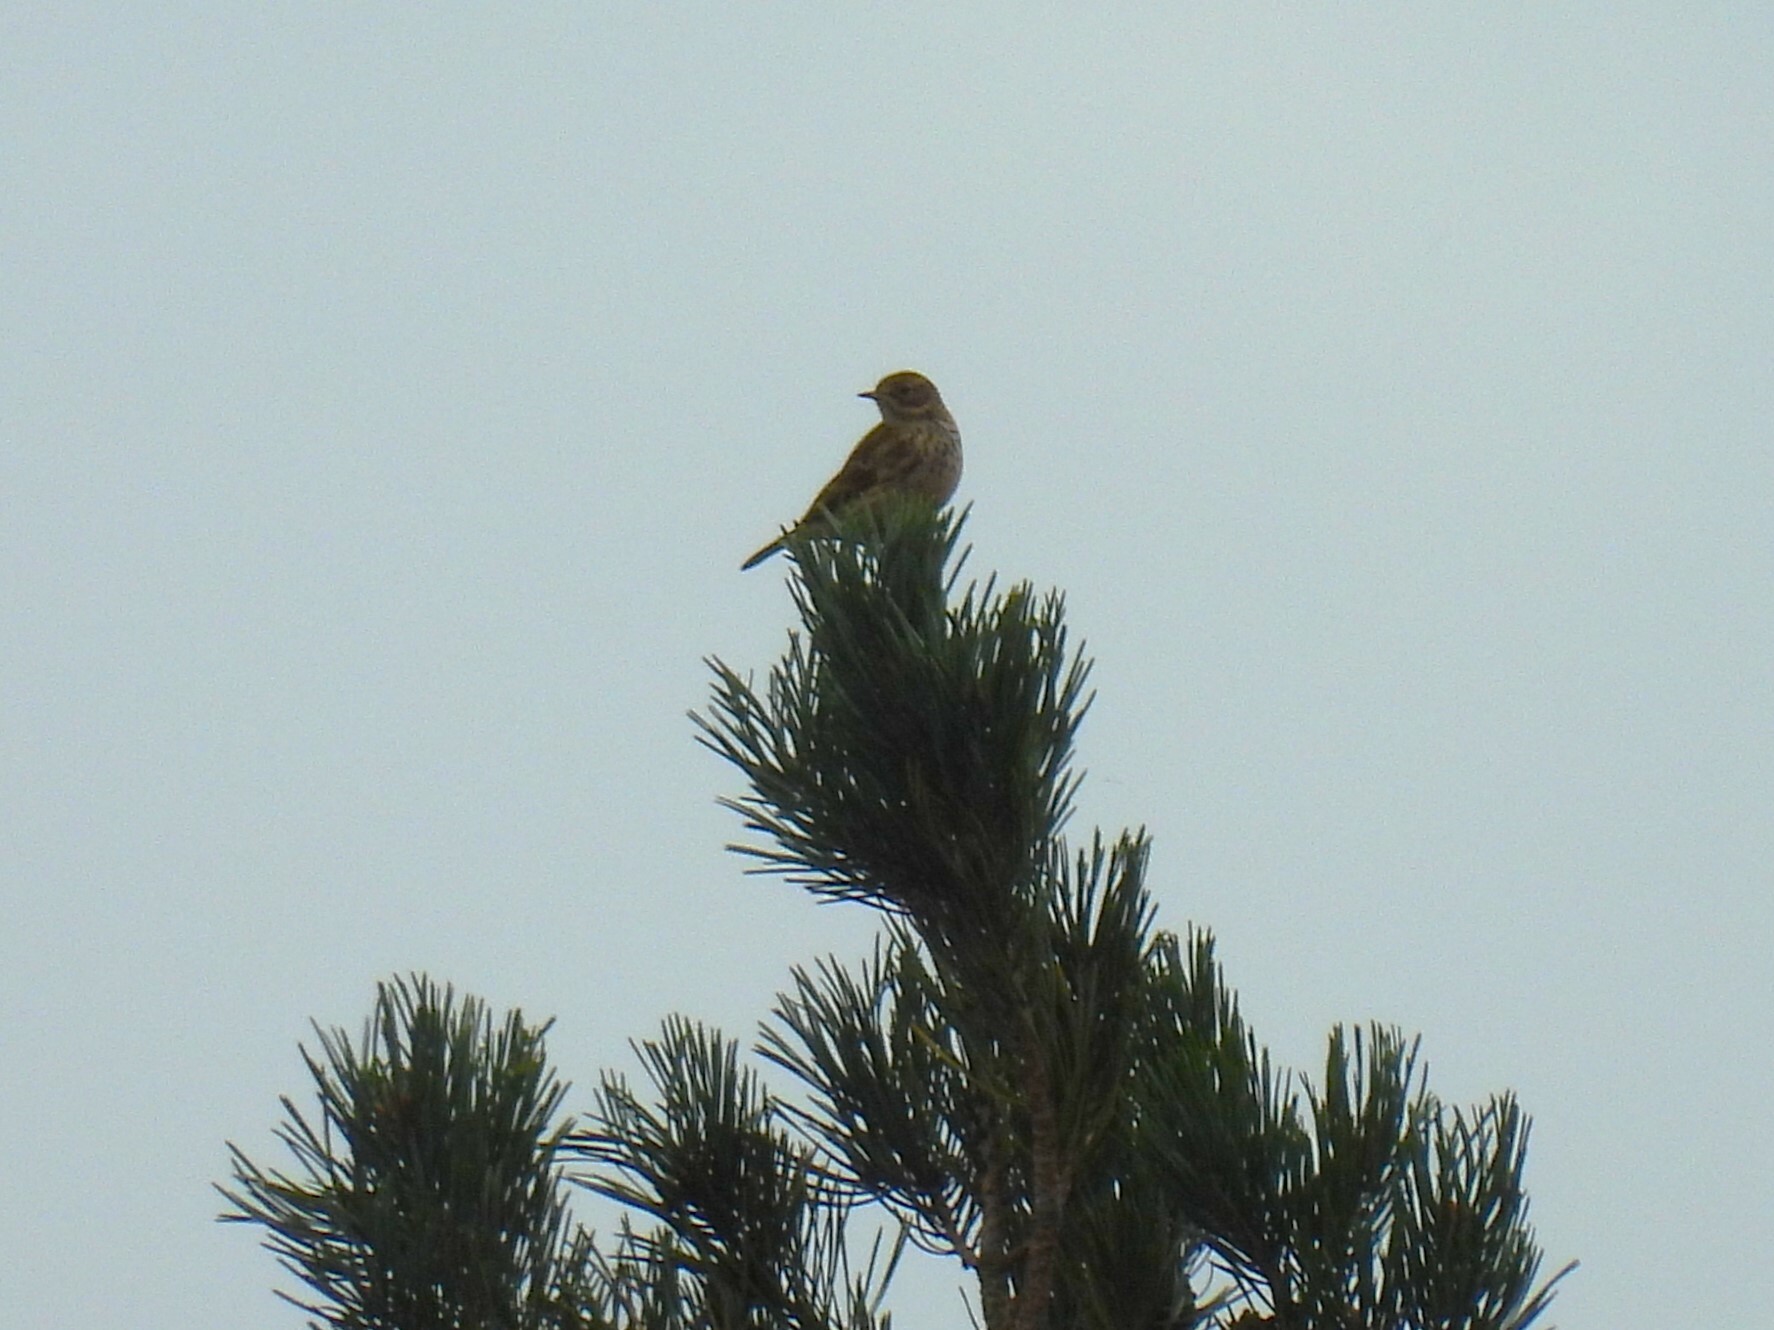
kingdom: Animalia
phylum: Chordata
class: Aves
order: Passeriformes
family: Motacillidae
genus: Anthus
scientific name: Anthus pratensis
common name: Meadow pipit
